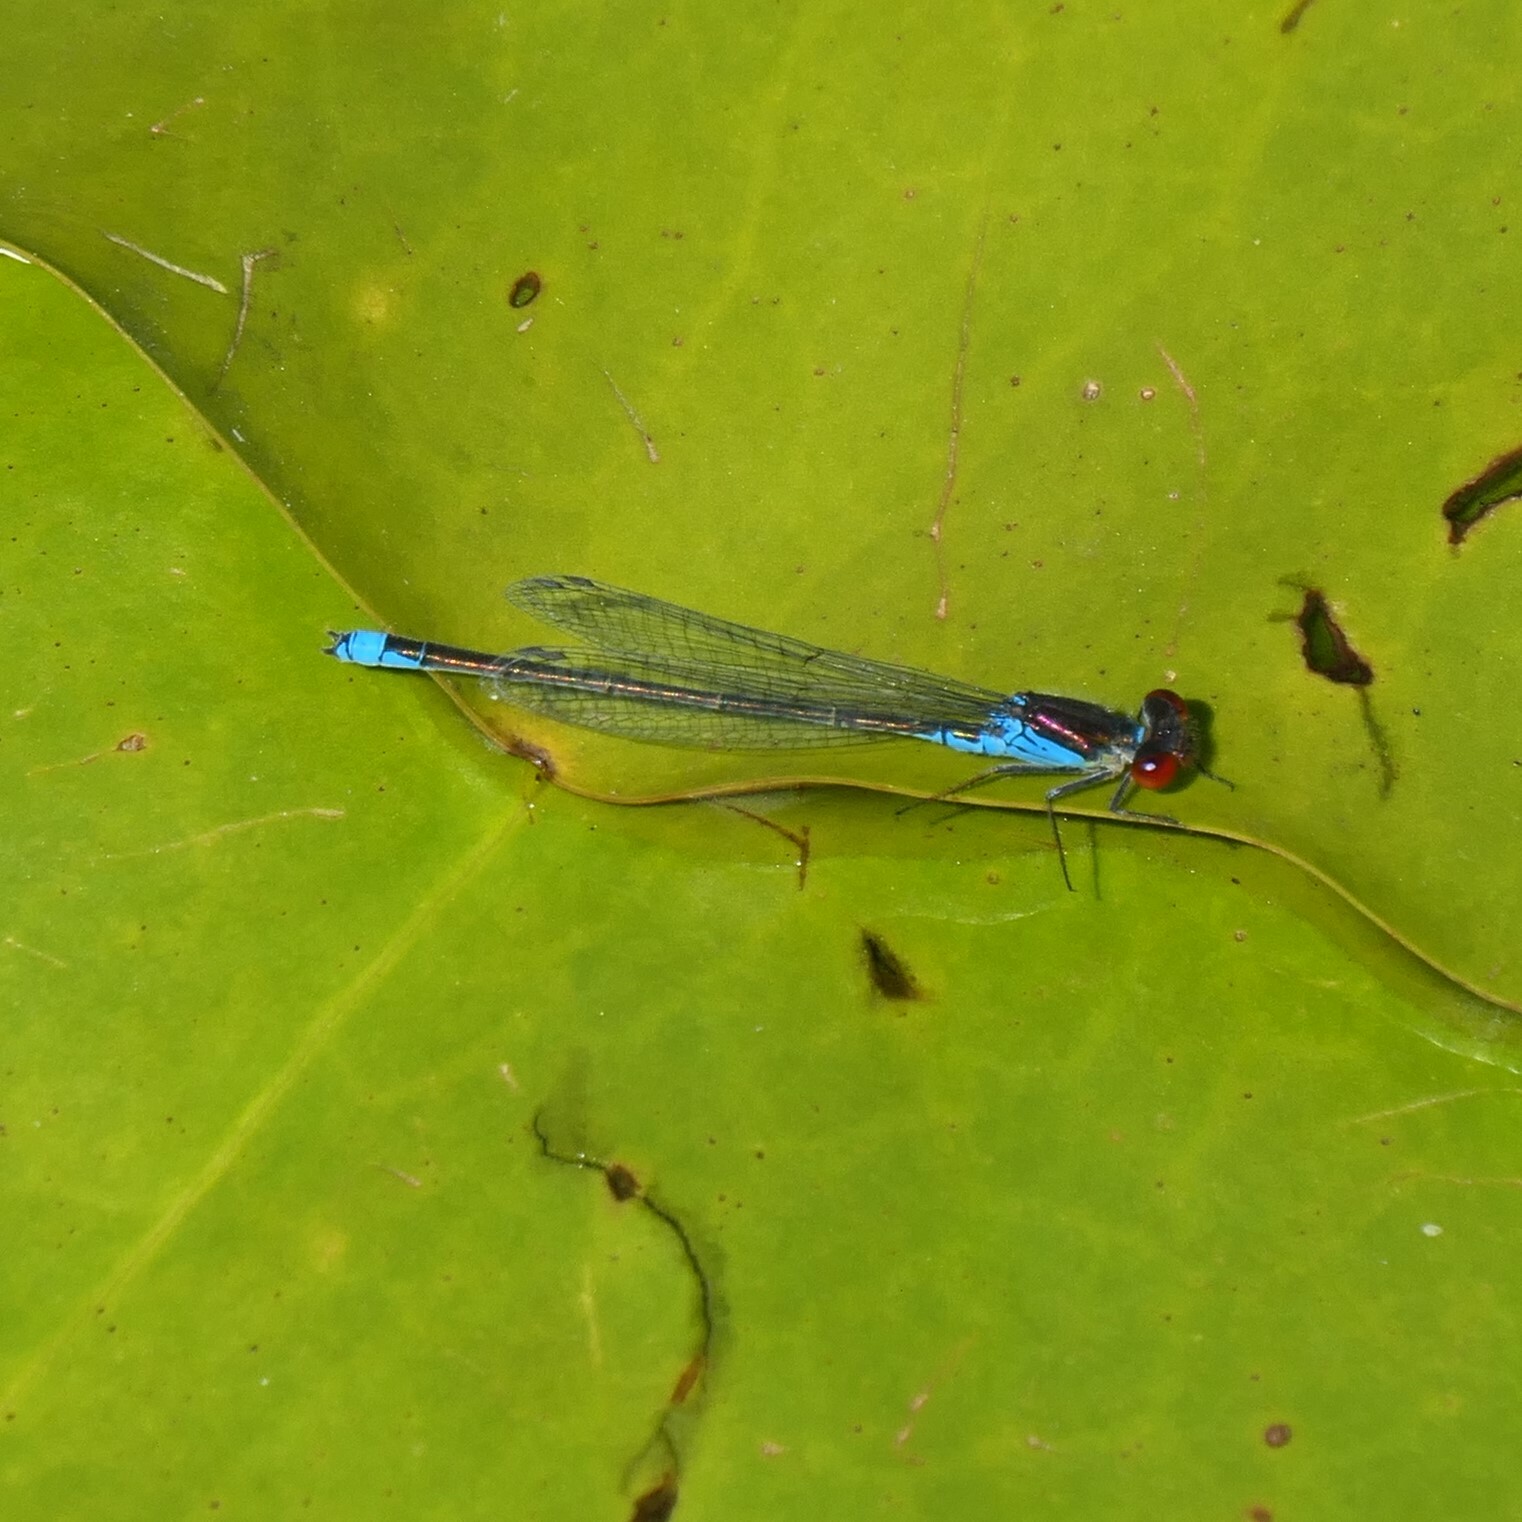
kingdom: Animalia
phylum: Arthropoda
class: Insecta
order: Odonata
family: Coenagrionidae
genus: Erythromma
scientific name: Erythromma viridulum
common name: Small red-eyed damselfly
